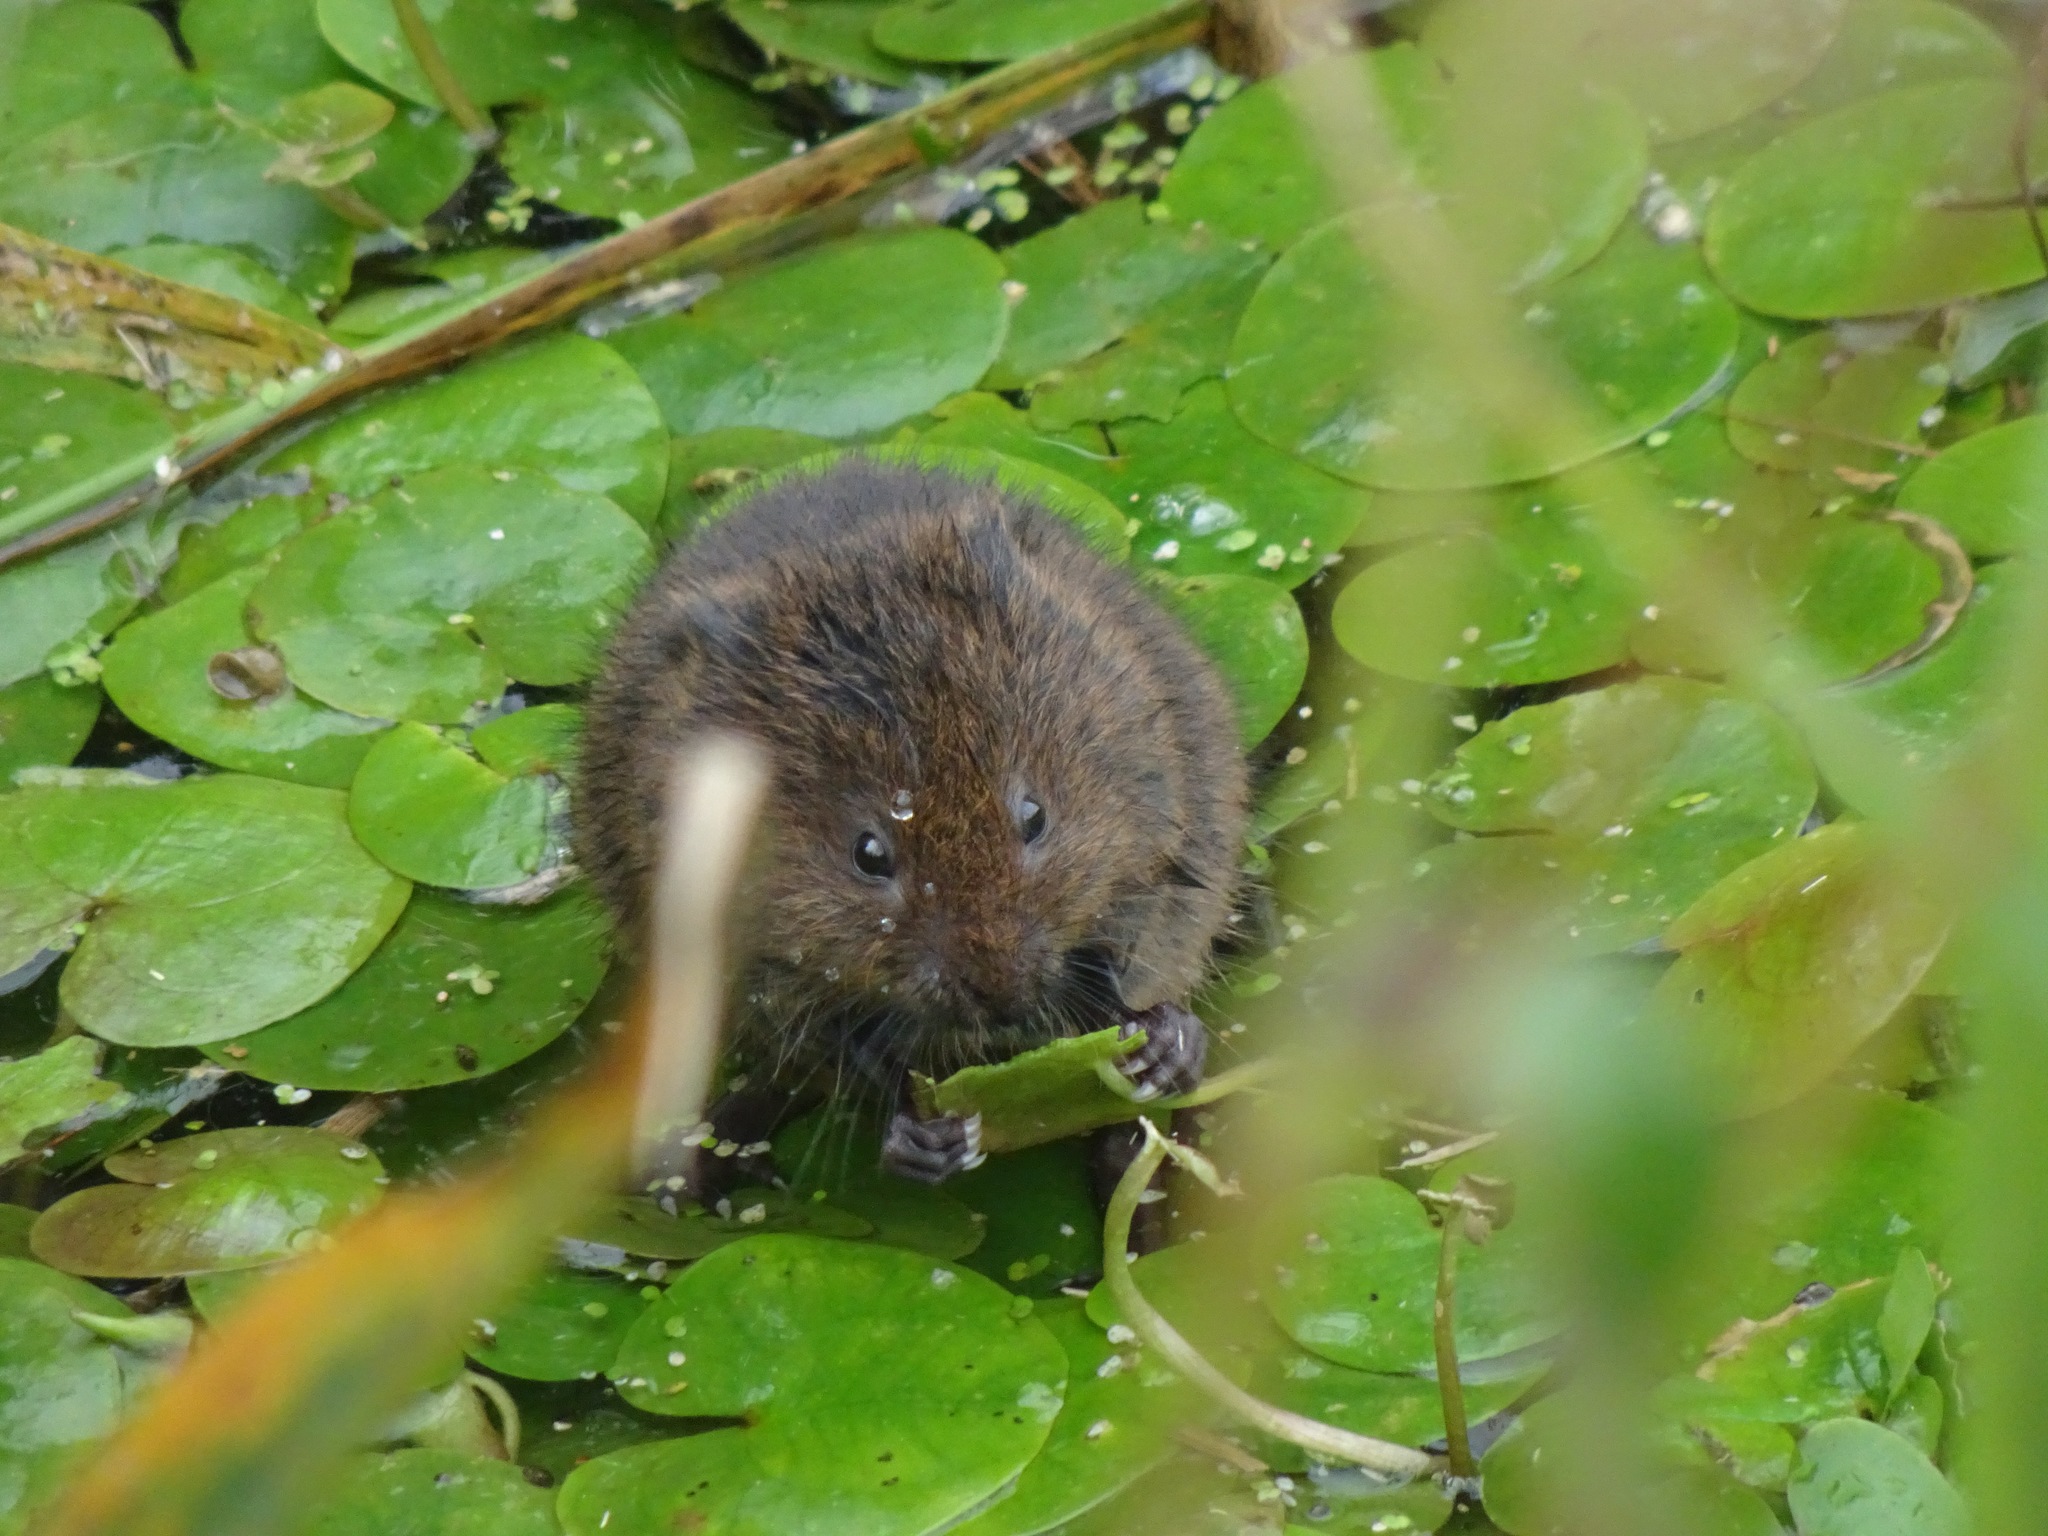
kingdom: Animalia
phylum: Chordata
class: Mammalia
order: Rodentia
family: Cricetidae
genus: Arvicola
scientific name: Arvicola amphibius
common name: European water vole
